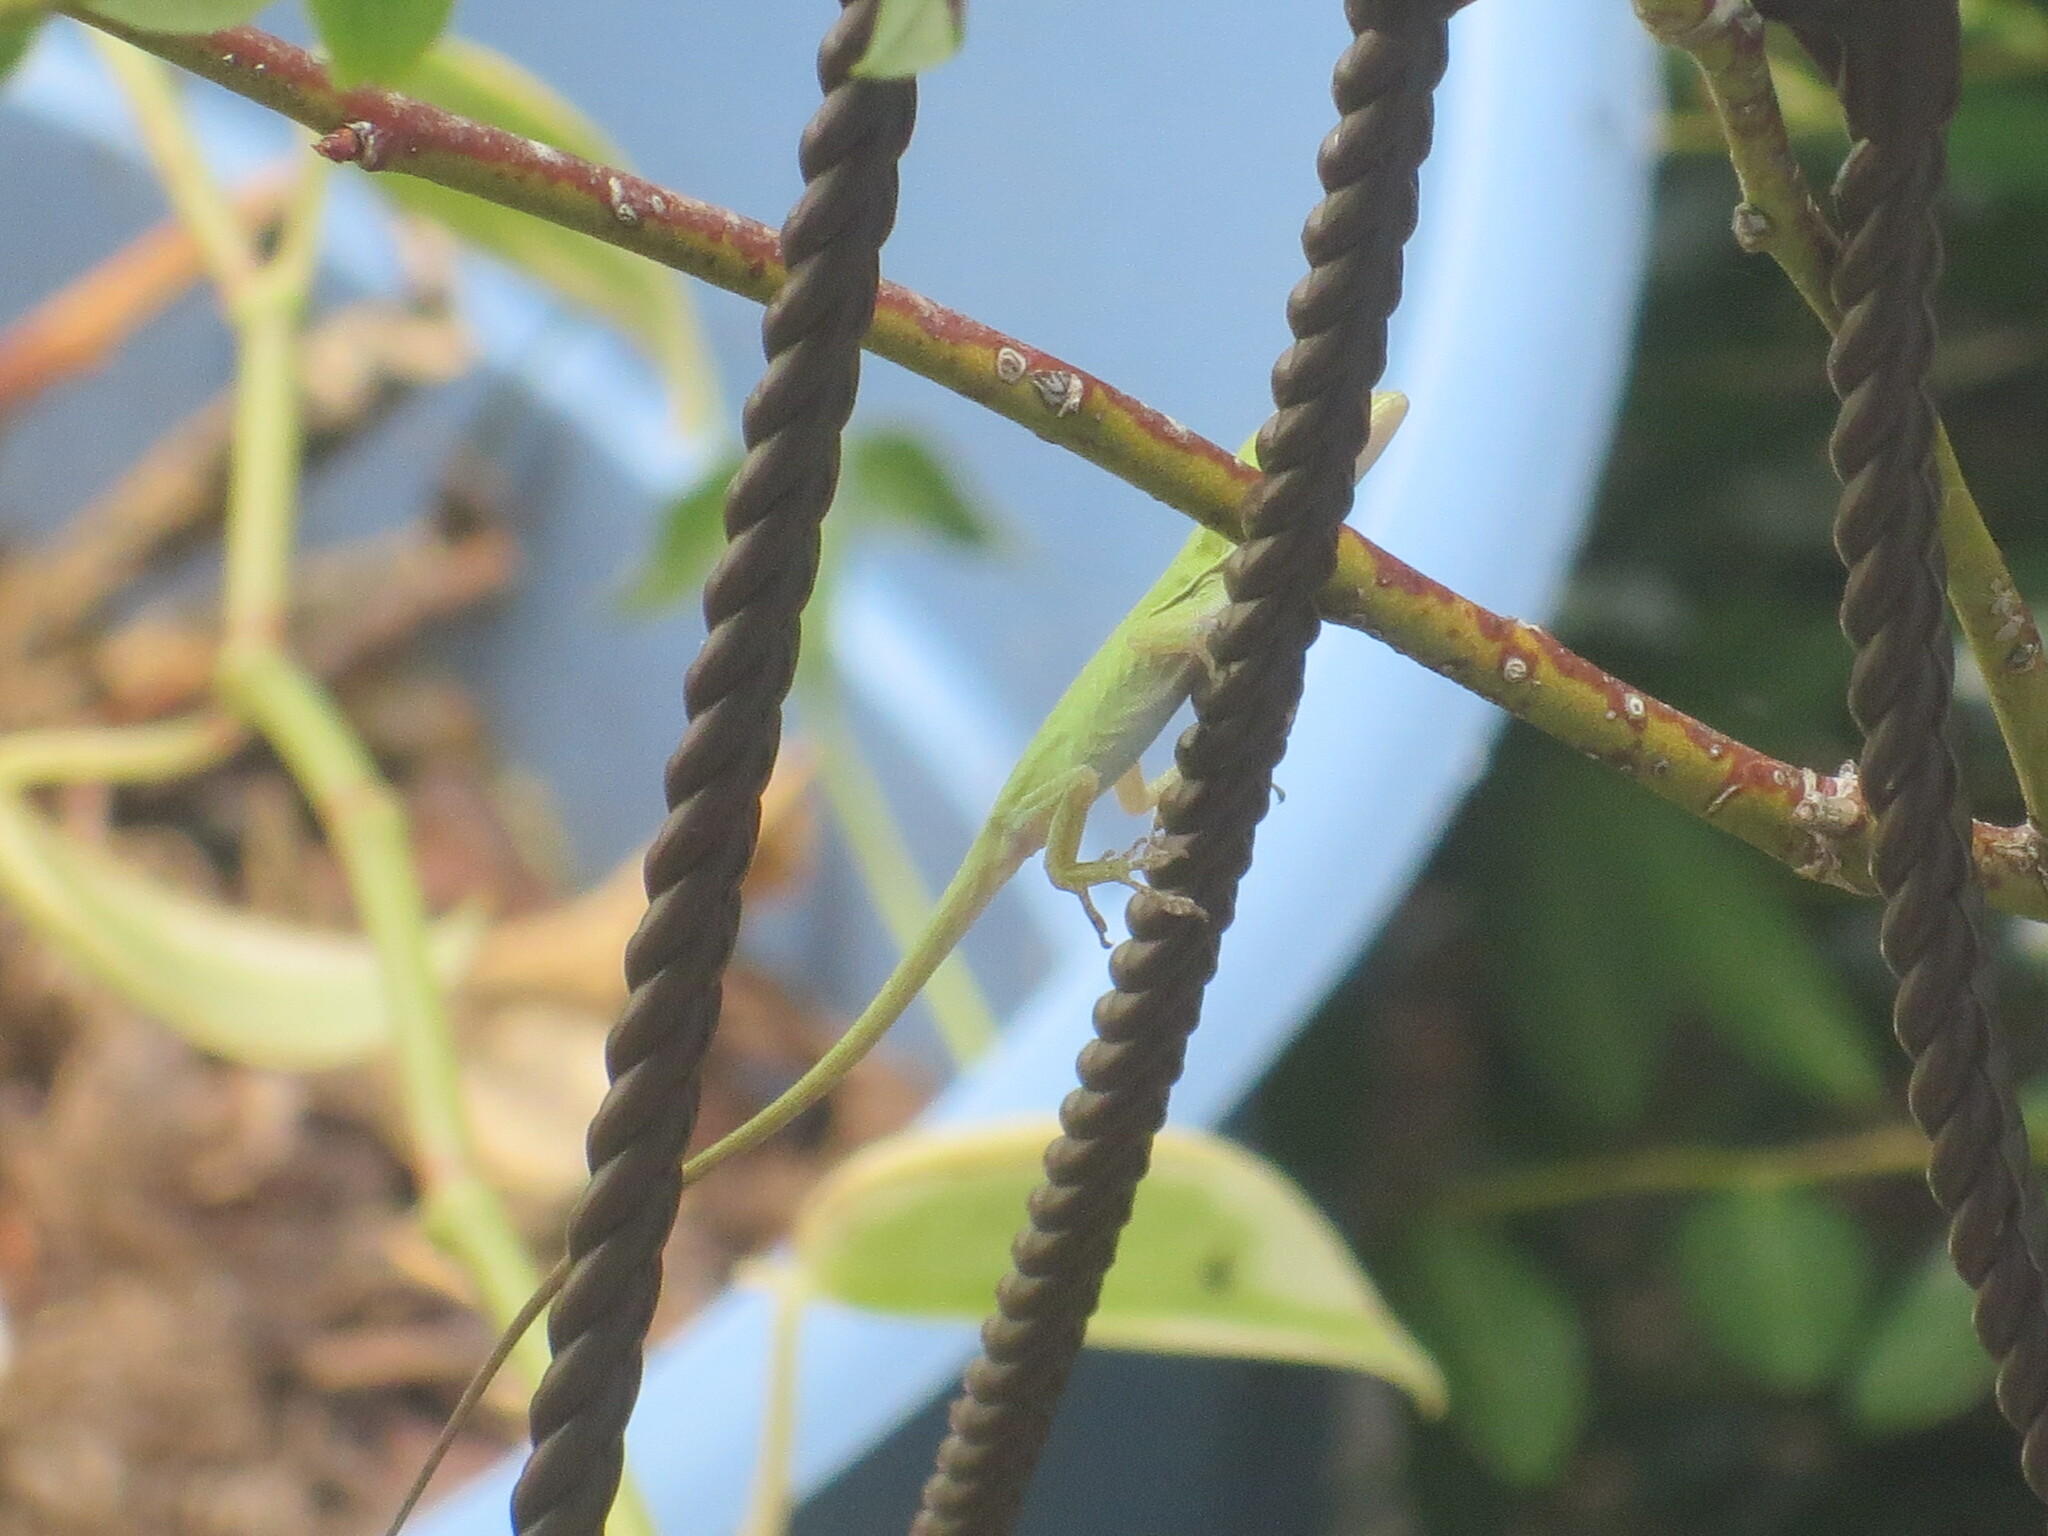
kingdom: Animalia
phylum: Chordata
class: Squamata
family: Dactyloidae
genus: Anolis
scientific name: Anolis carolinensis
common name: Green anole
